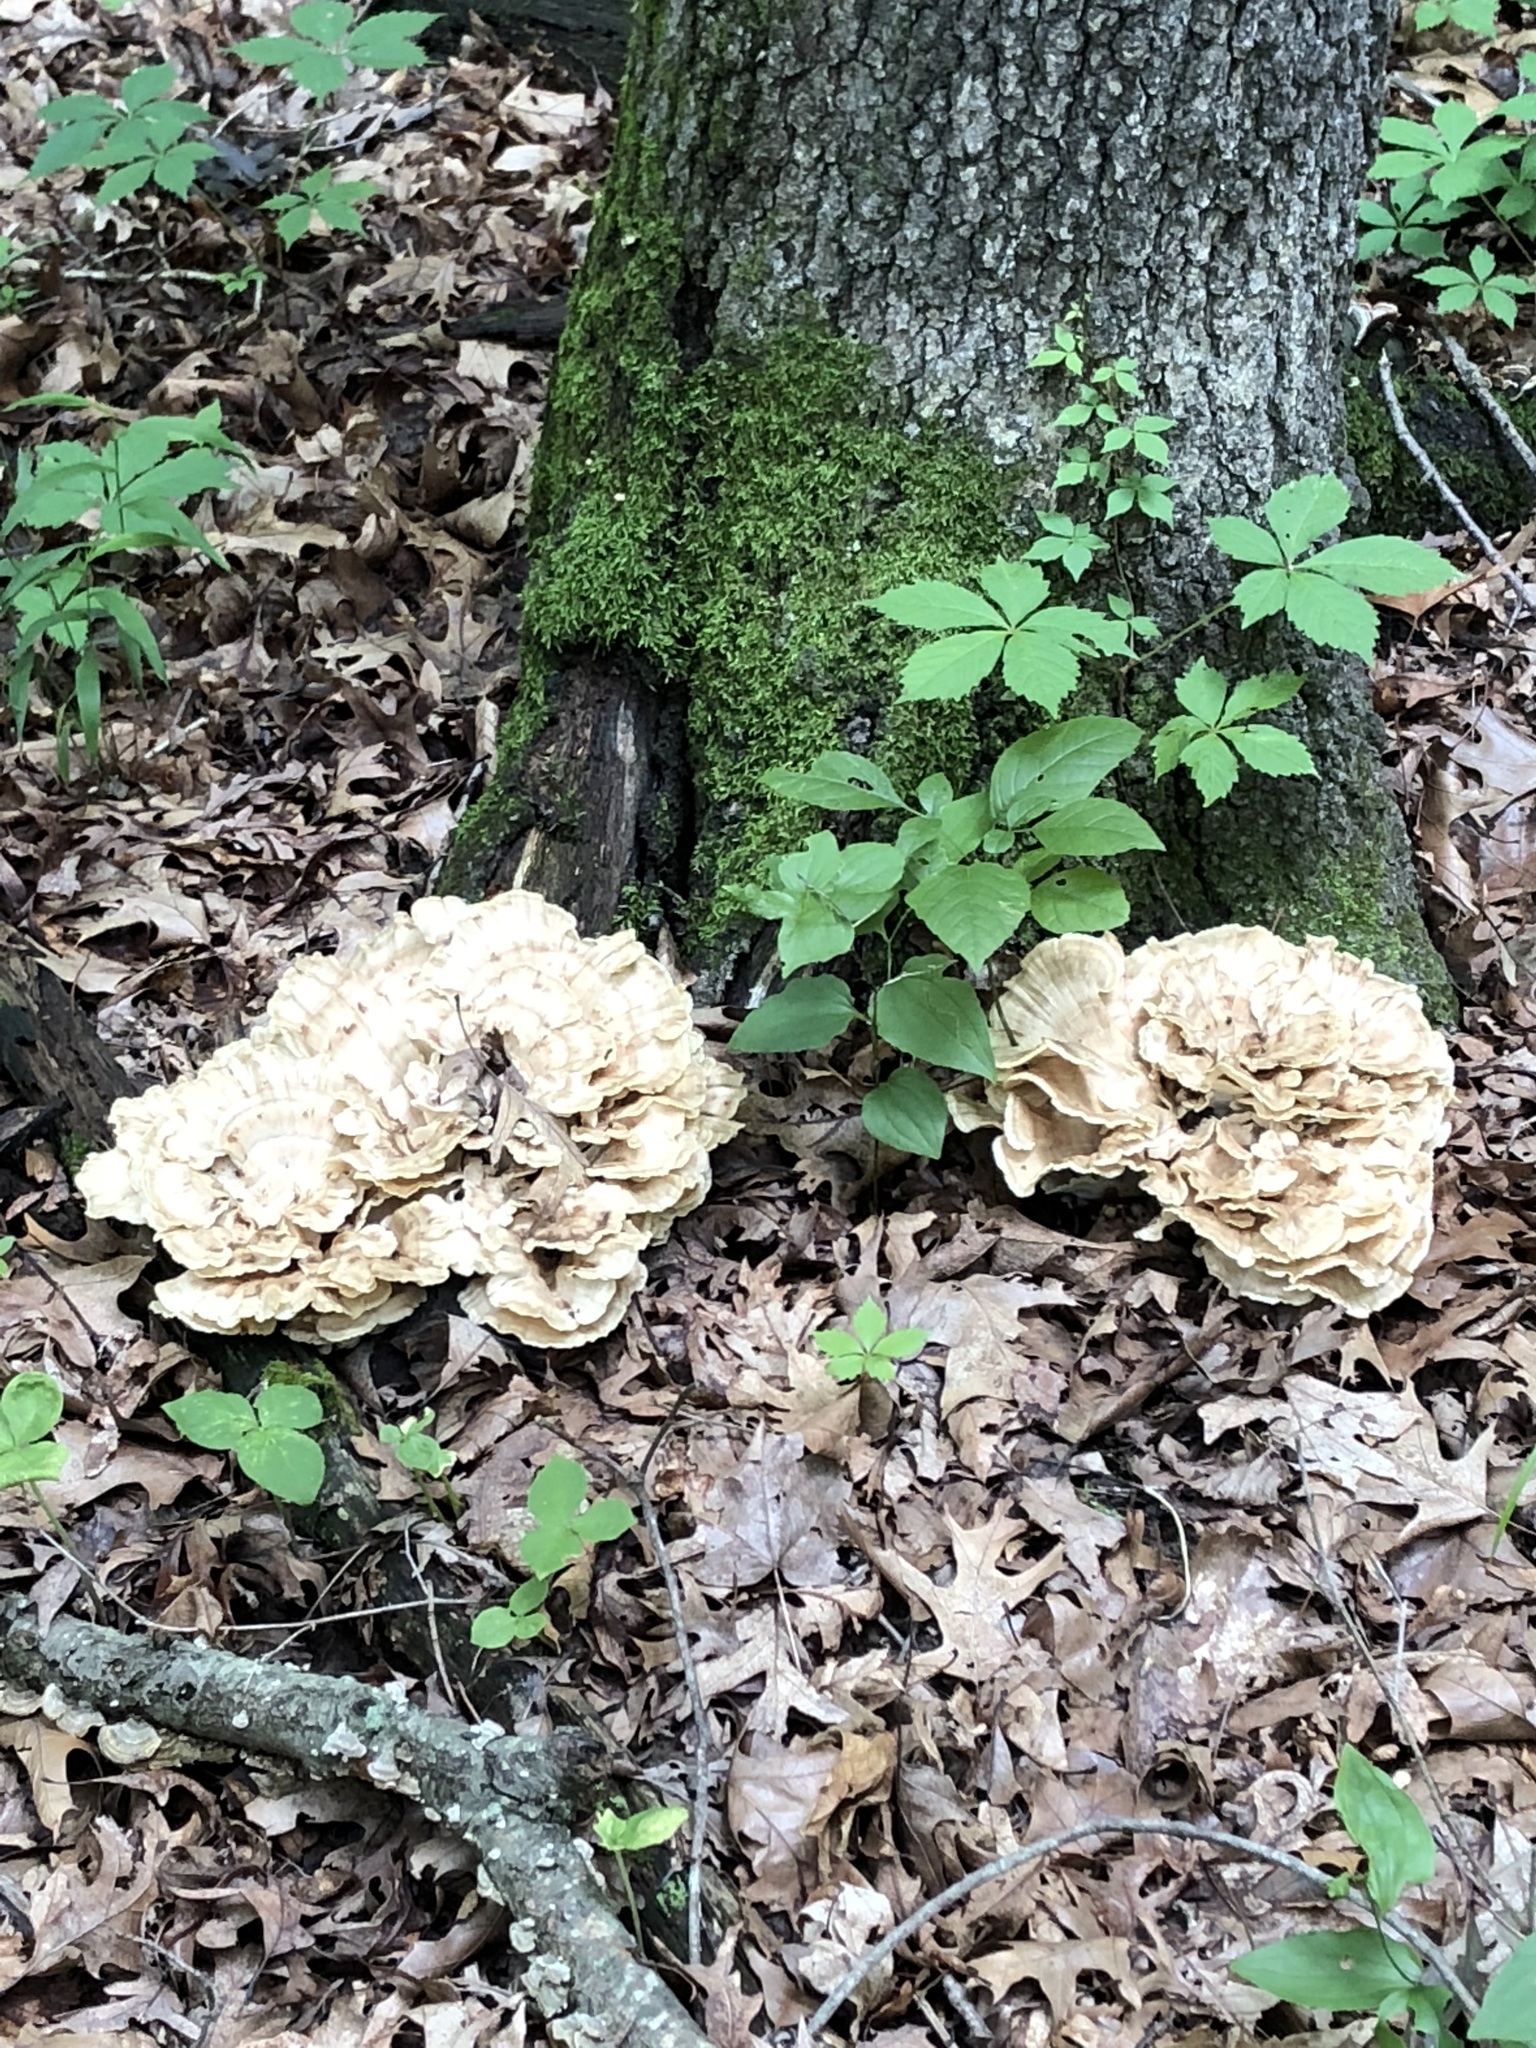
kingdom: Fungi
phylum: Basidiomycota
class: Agaricomycetes
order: Polyporales
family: Meripilaceae
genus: Meripilus
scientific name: Meripilus sumstinei
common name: Black-staining polypore
